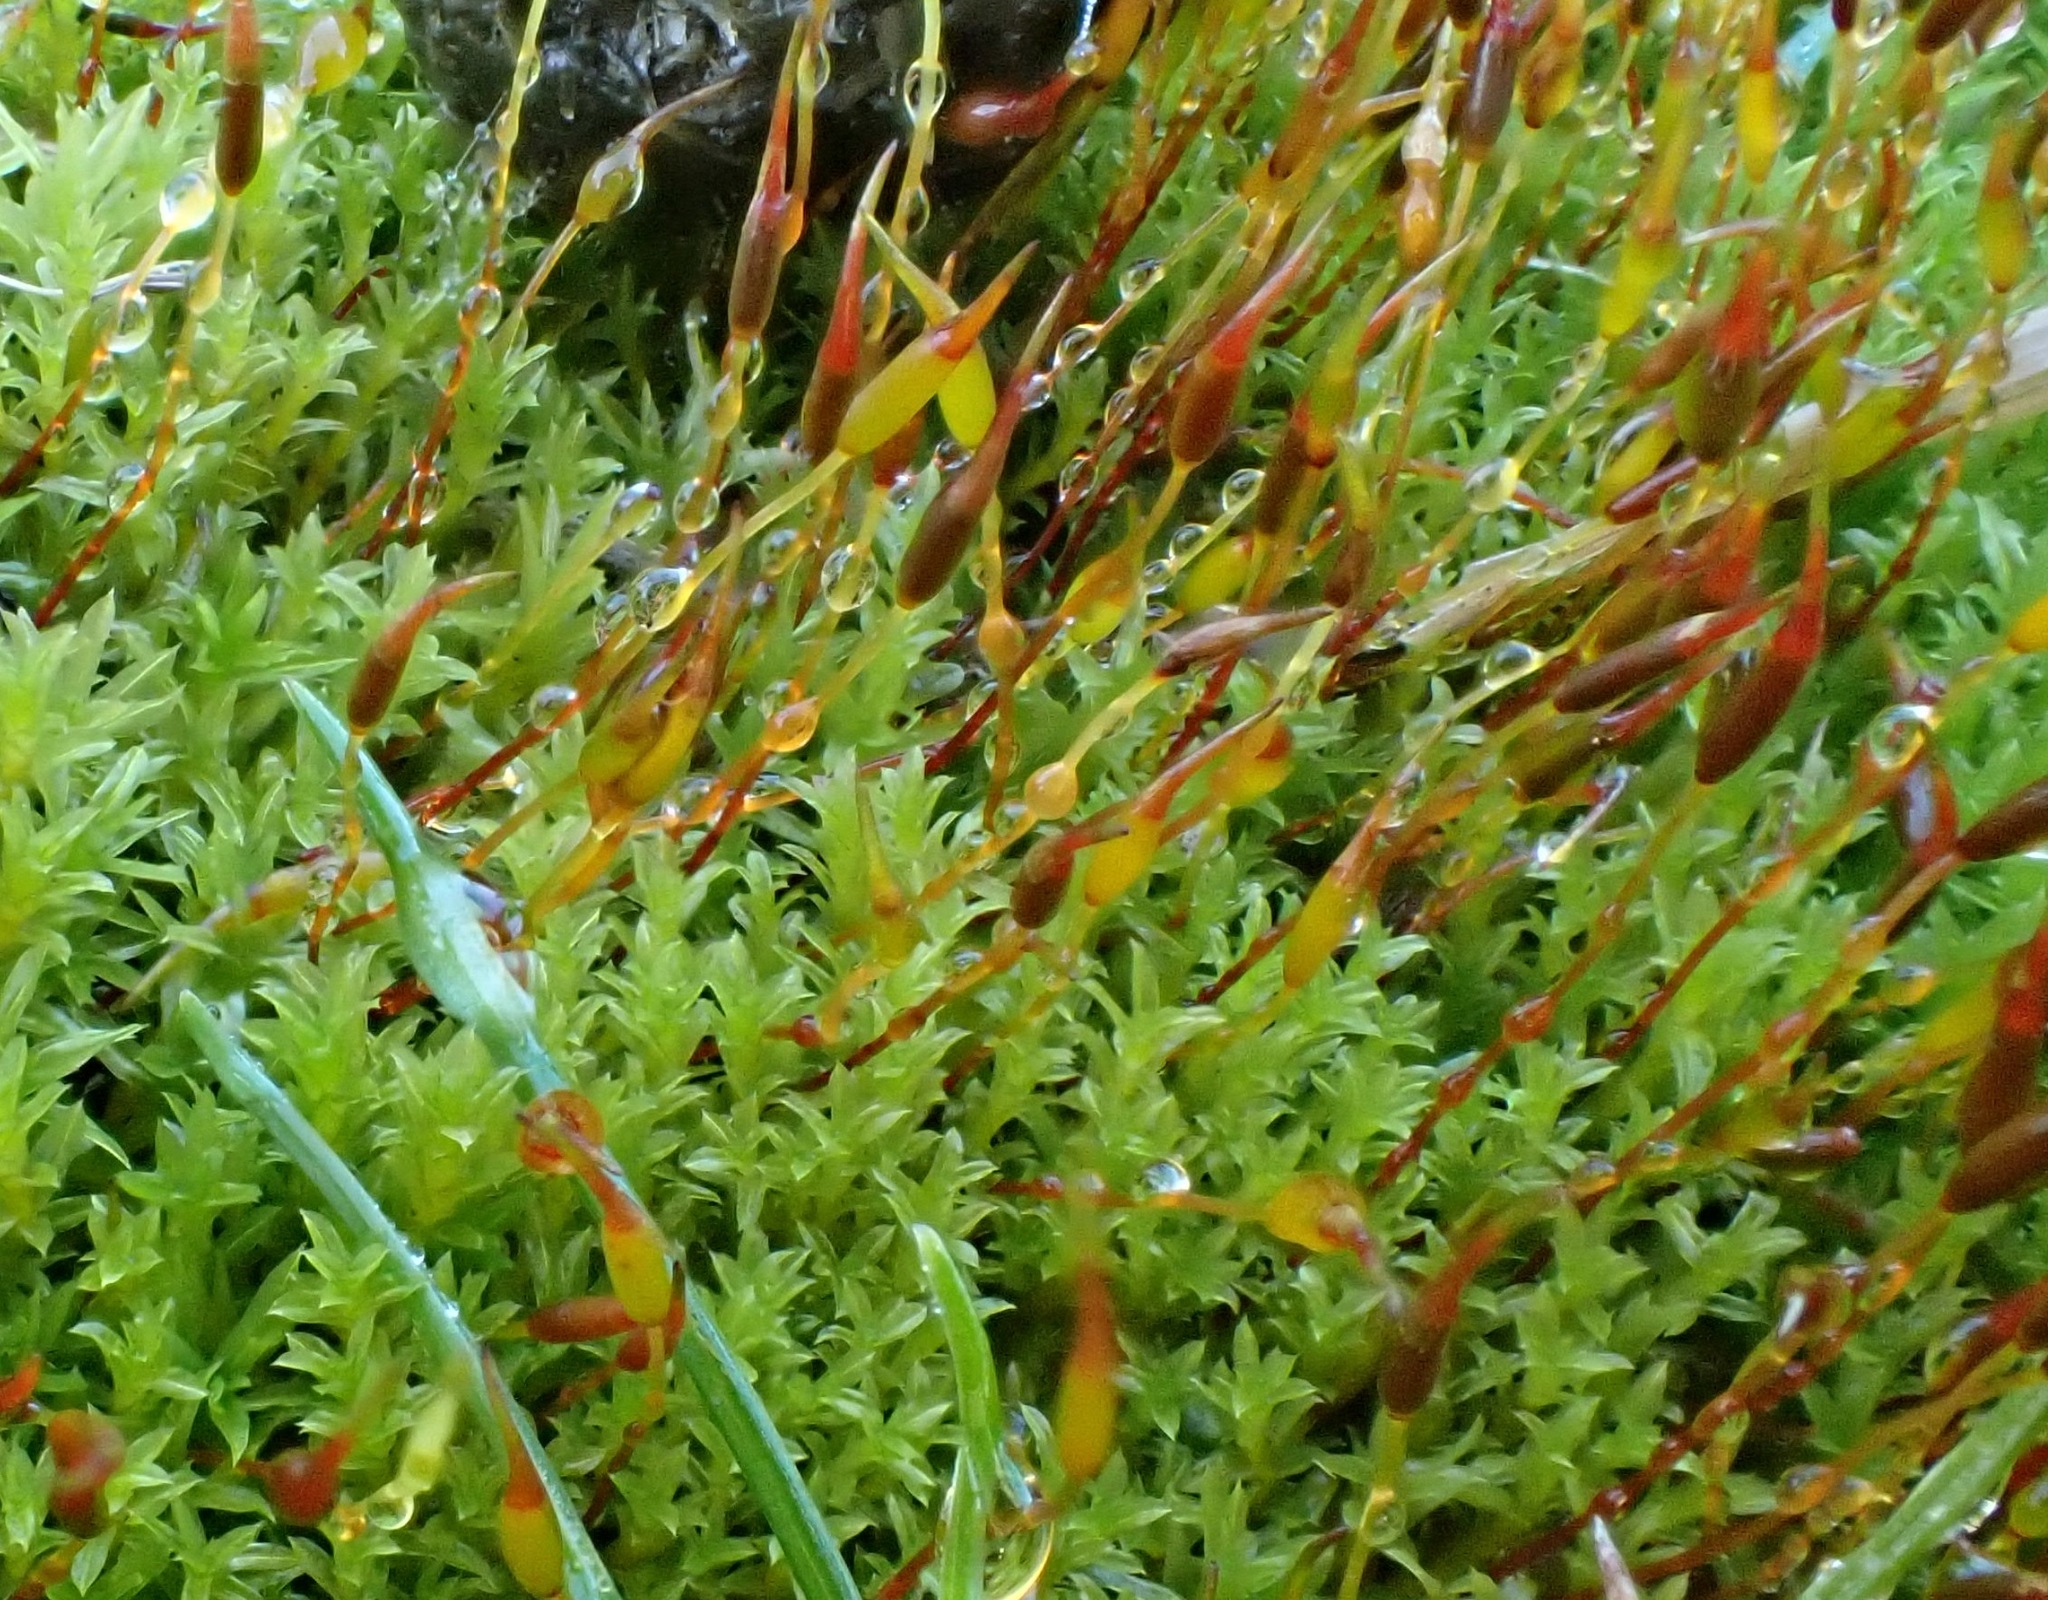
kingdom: Plantae
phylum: Bryophyta
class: Bryopsida
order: Pottiales
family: Pottiaceae
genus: Barbula
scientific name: Barbula unguiculata
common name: Prickly beard moss
